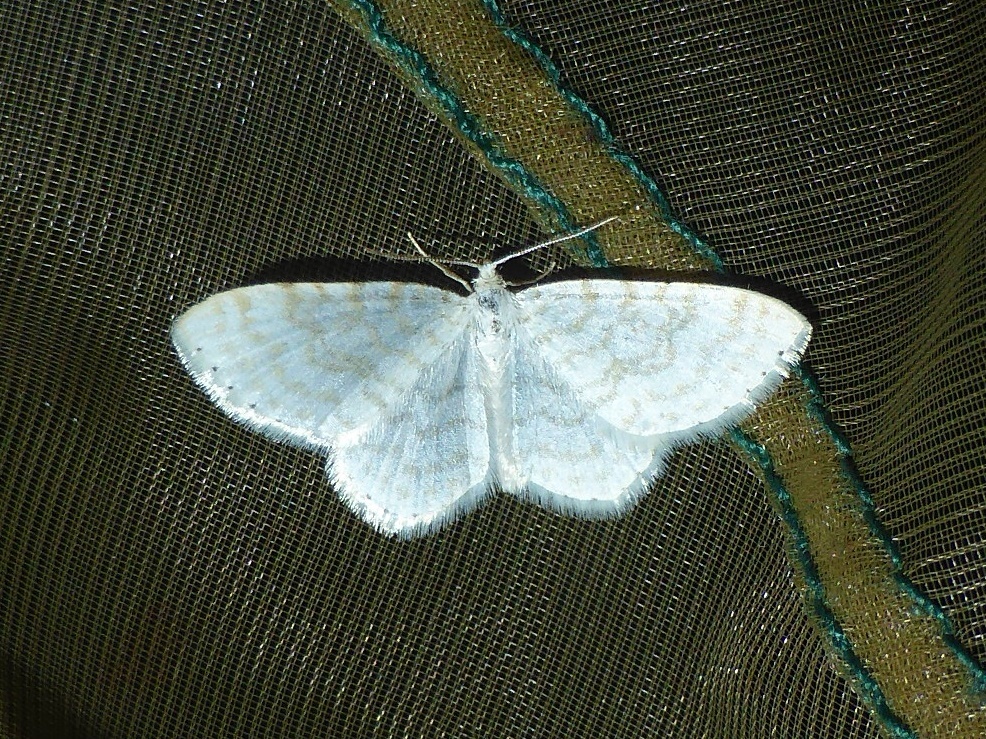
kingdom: Animalia
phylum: Arthropoda
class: Insecta
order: Lepidoptera
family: Geometridae
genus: Asthena
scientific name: Asthena albulata
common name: Small white wave
